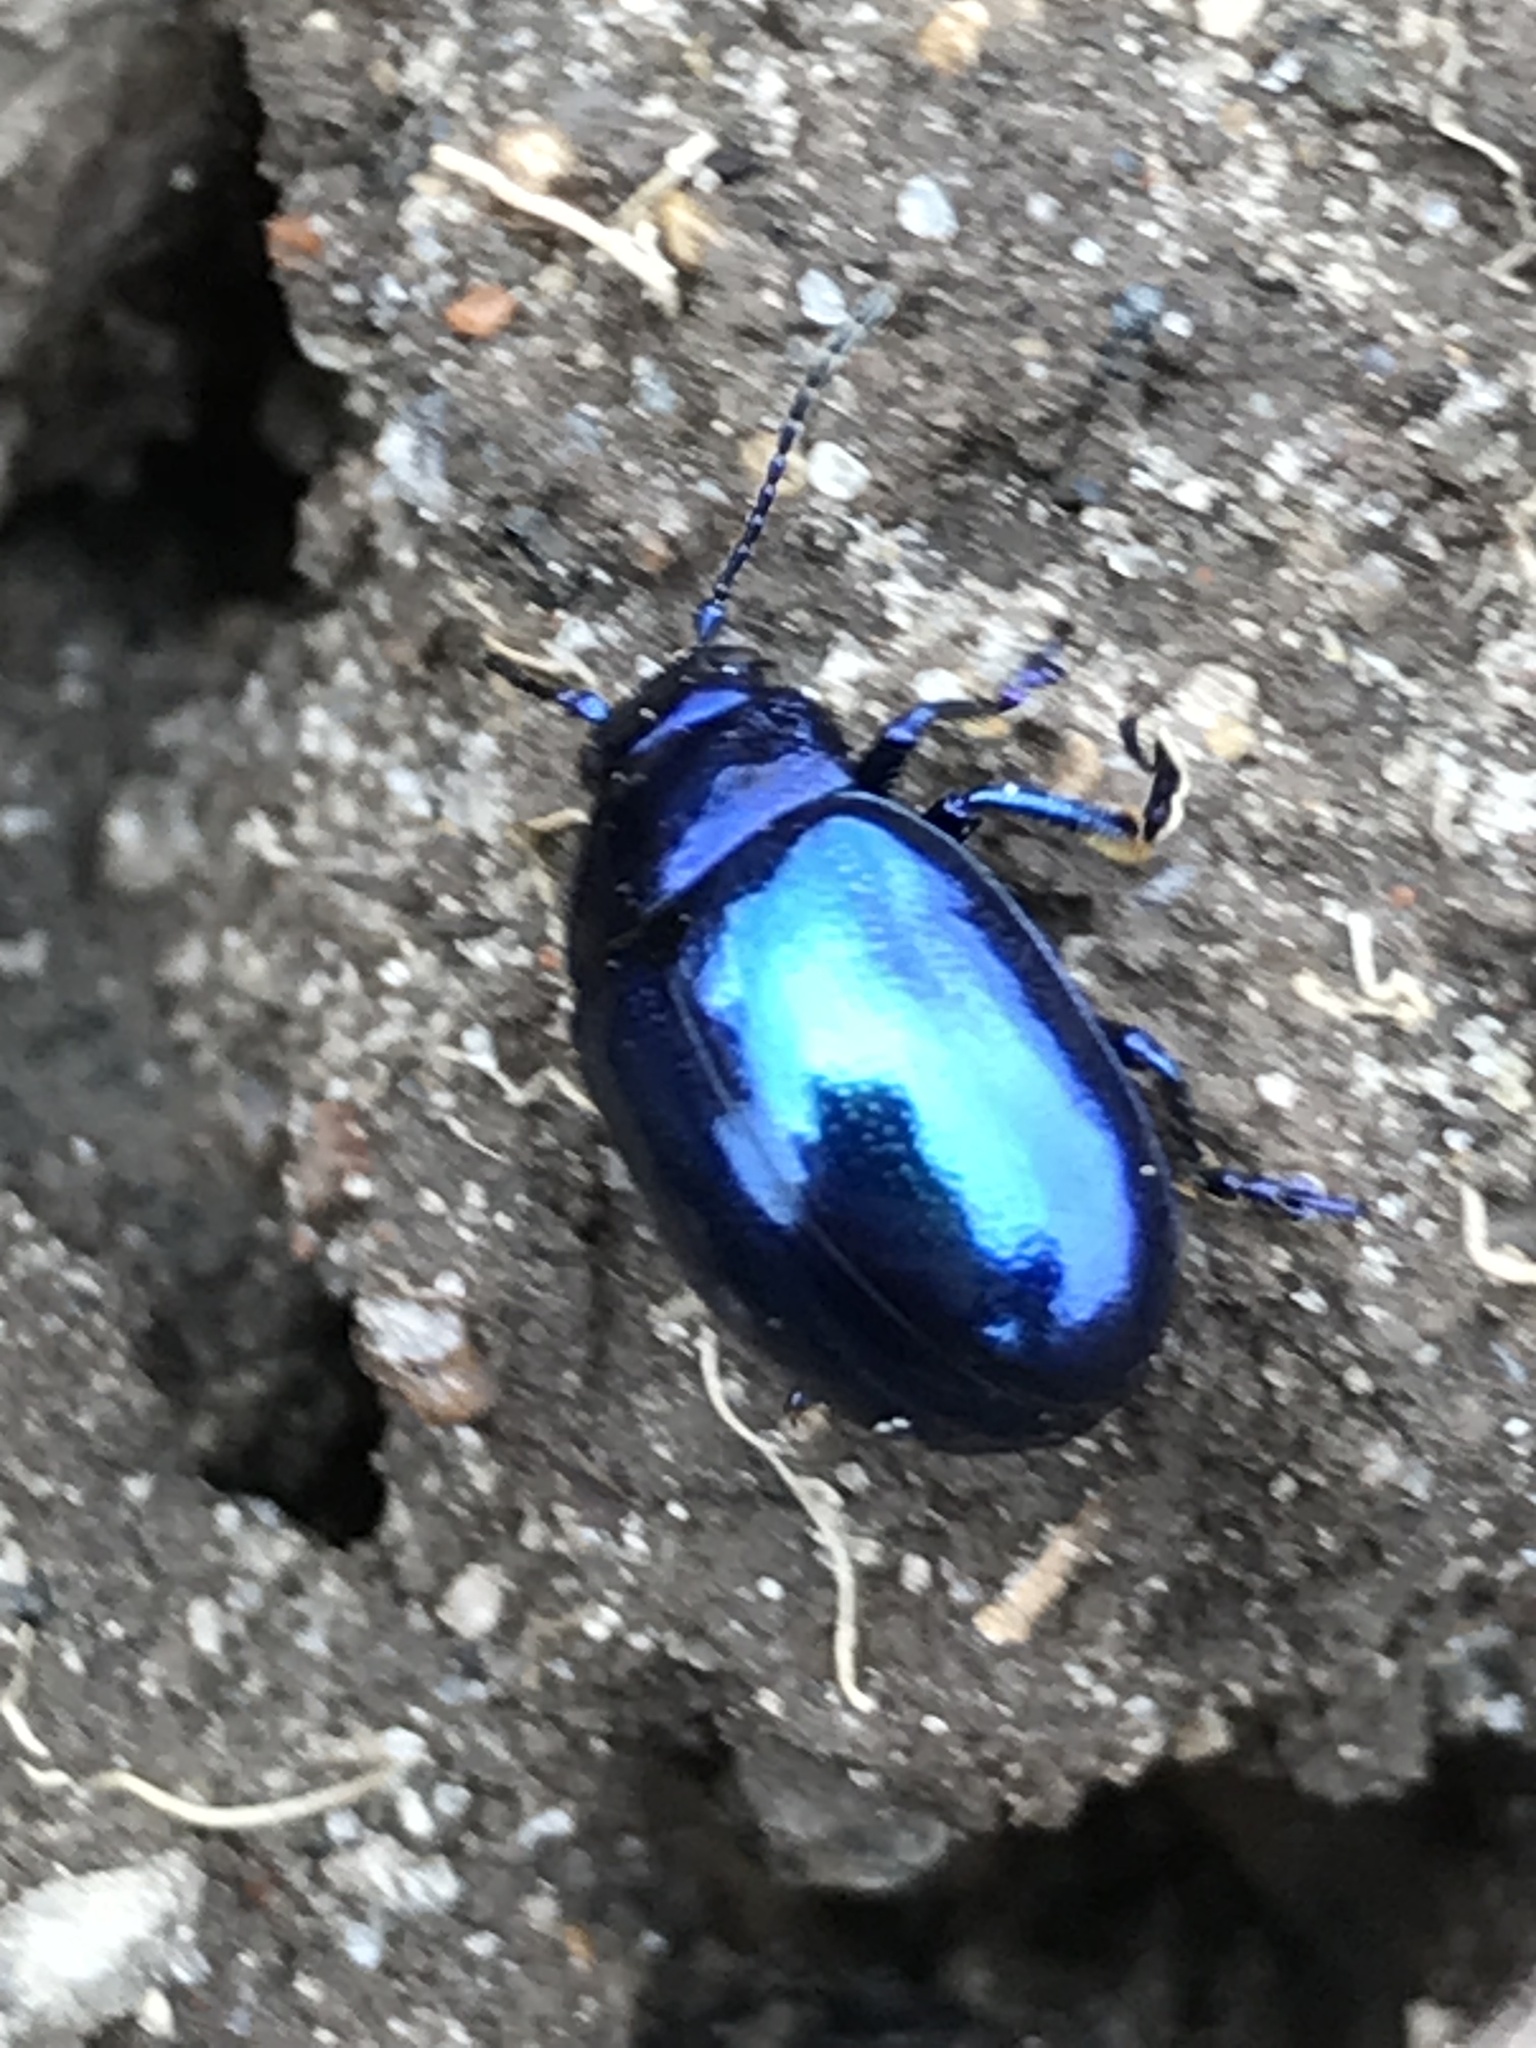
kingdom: Animalia
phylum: Arthropoda
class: Insecta
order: Coleoptera
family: Chrysomelidae
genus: Chrysolina
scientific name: Chrysolina coerulans
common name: Blue mint beetle
